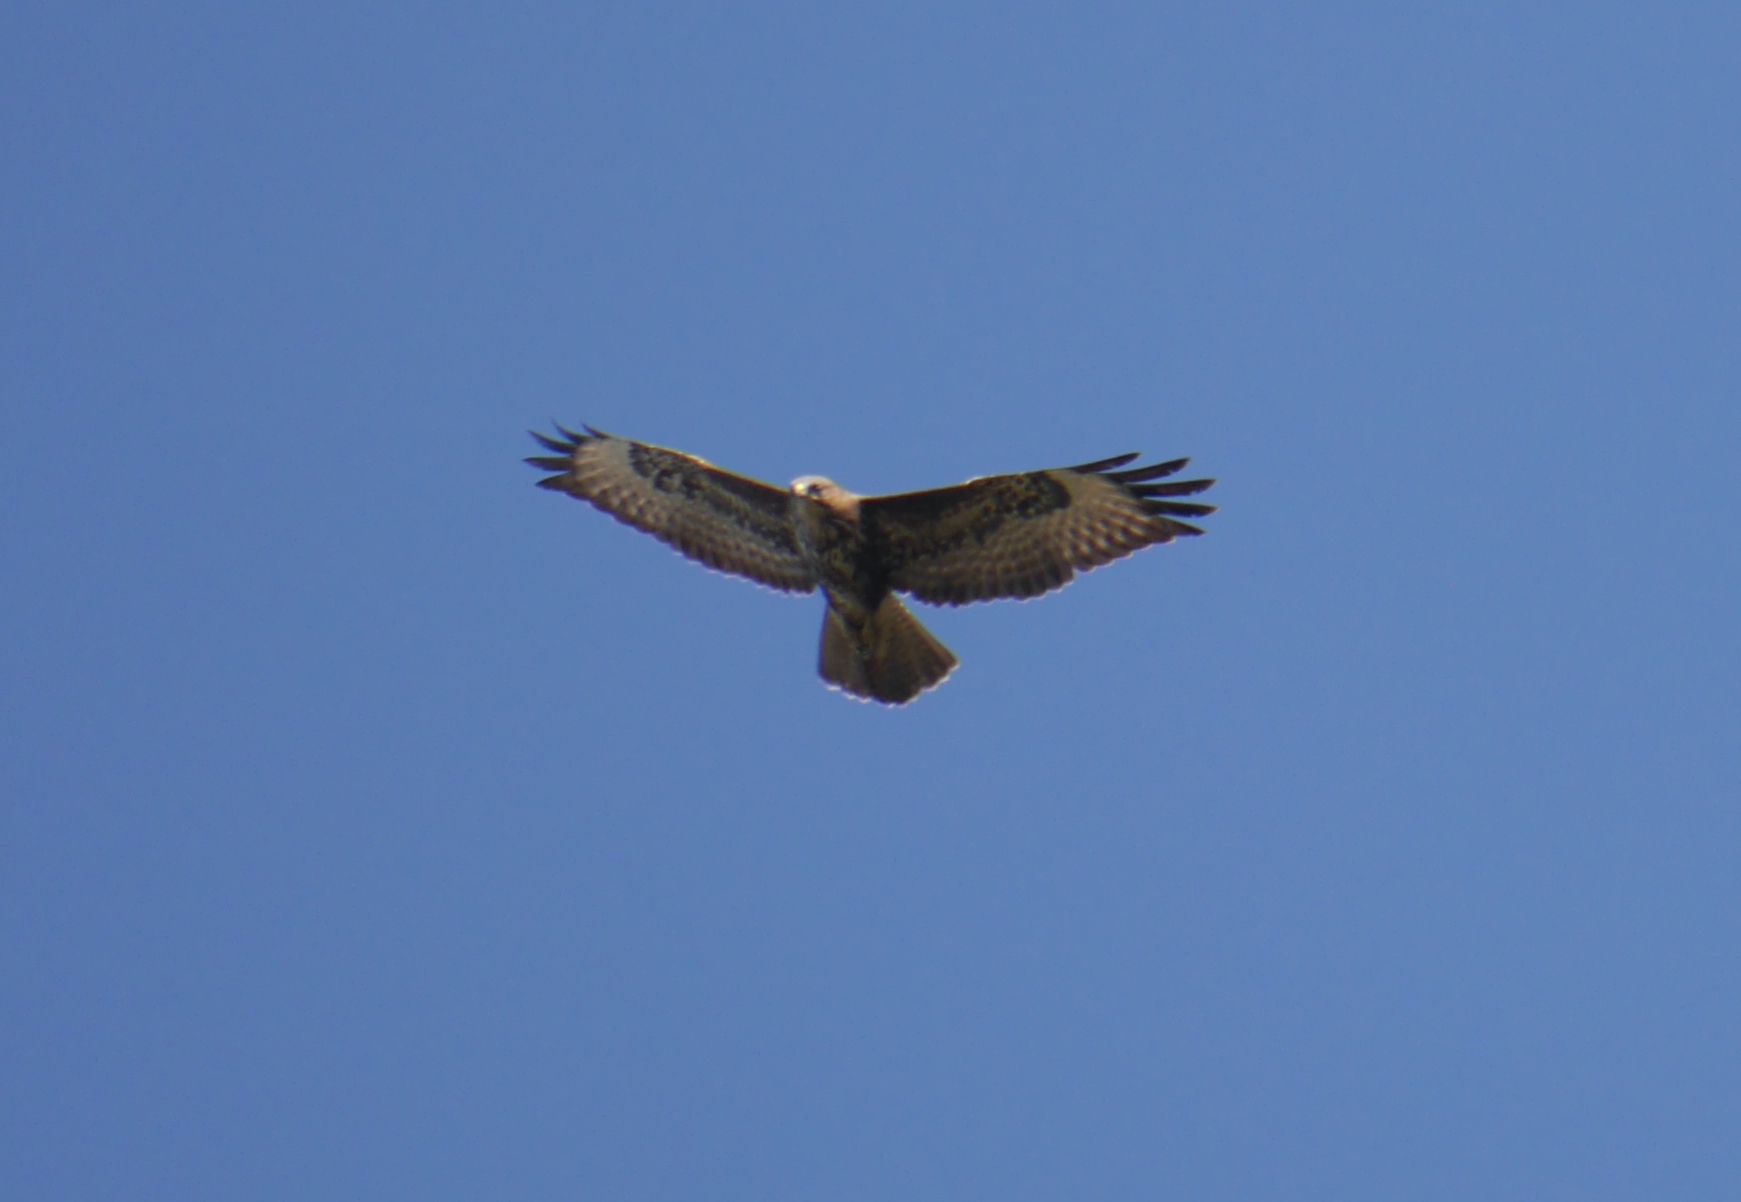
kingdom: Animalia
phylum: Chordata
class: Aves
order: Accipitriformes
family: Accipitridae
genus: Buteo
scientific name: Buteo buteo
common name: Common buzzard
